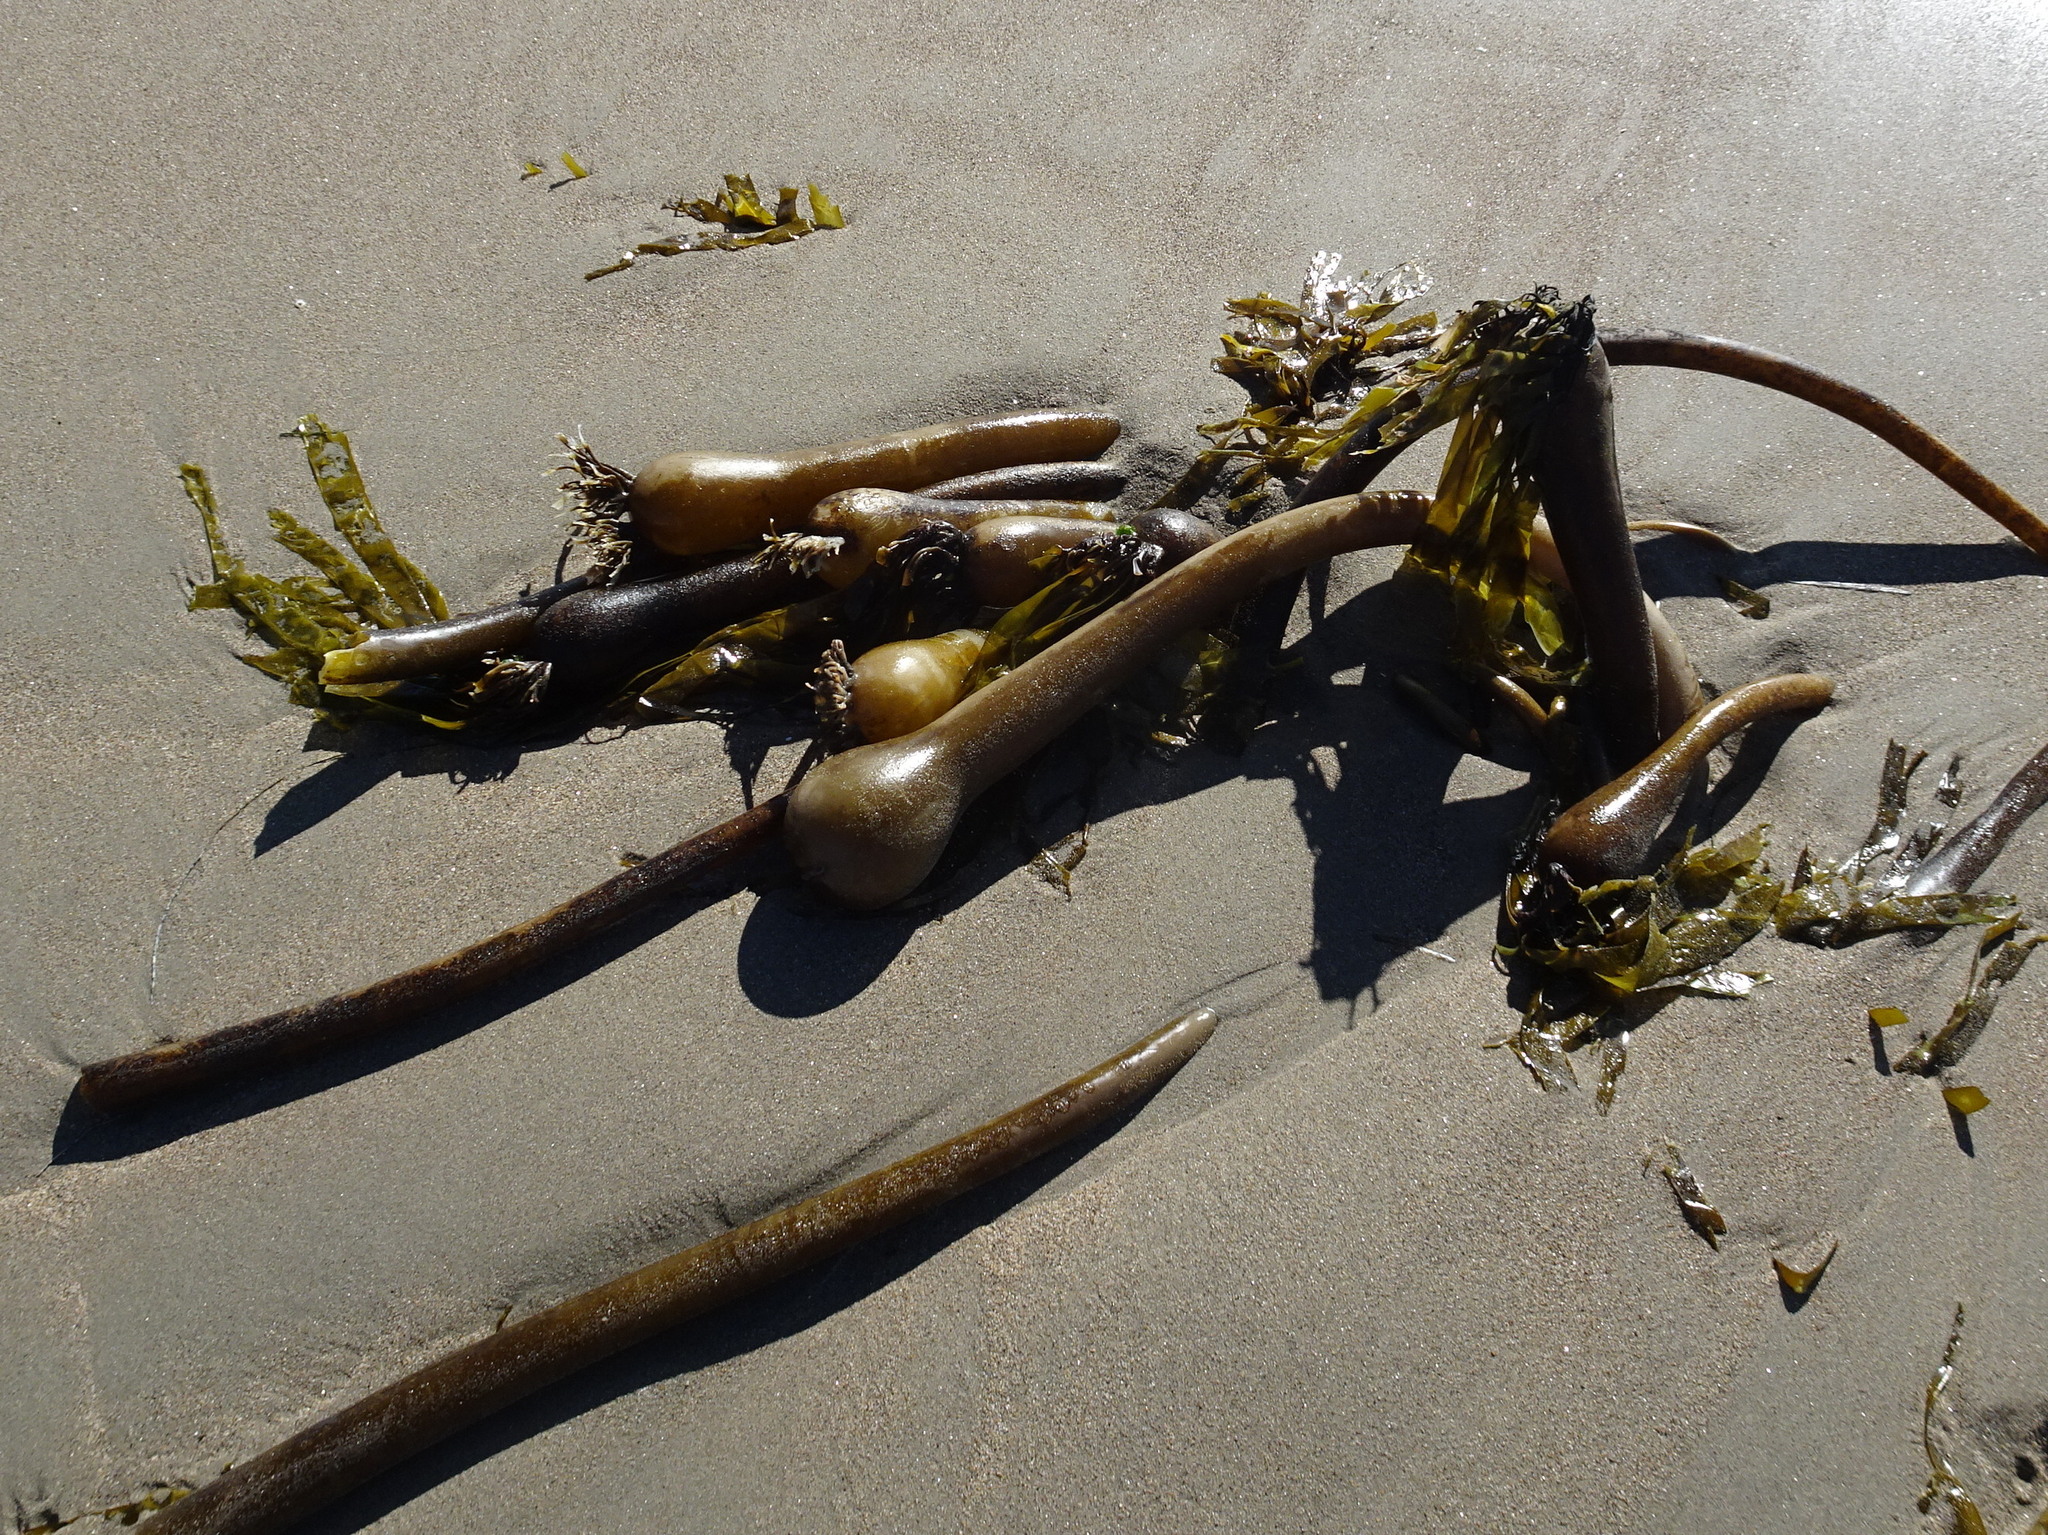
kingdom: Chromista
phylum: Ochrophyta
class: Phaeophyceae
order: Laminariales
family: Laminariaceae
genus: Nereocystis
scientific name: Nereocystis luetkeana
